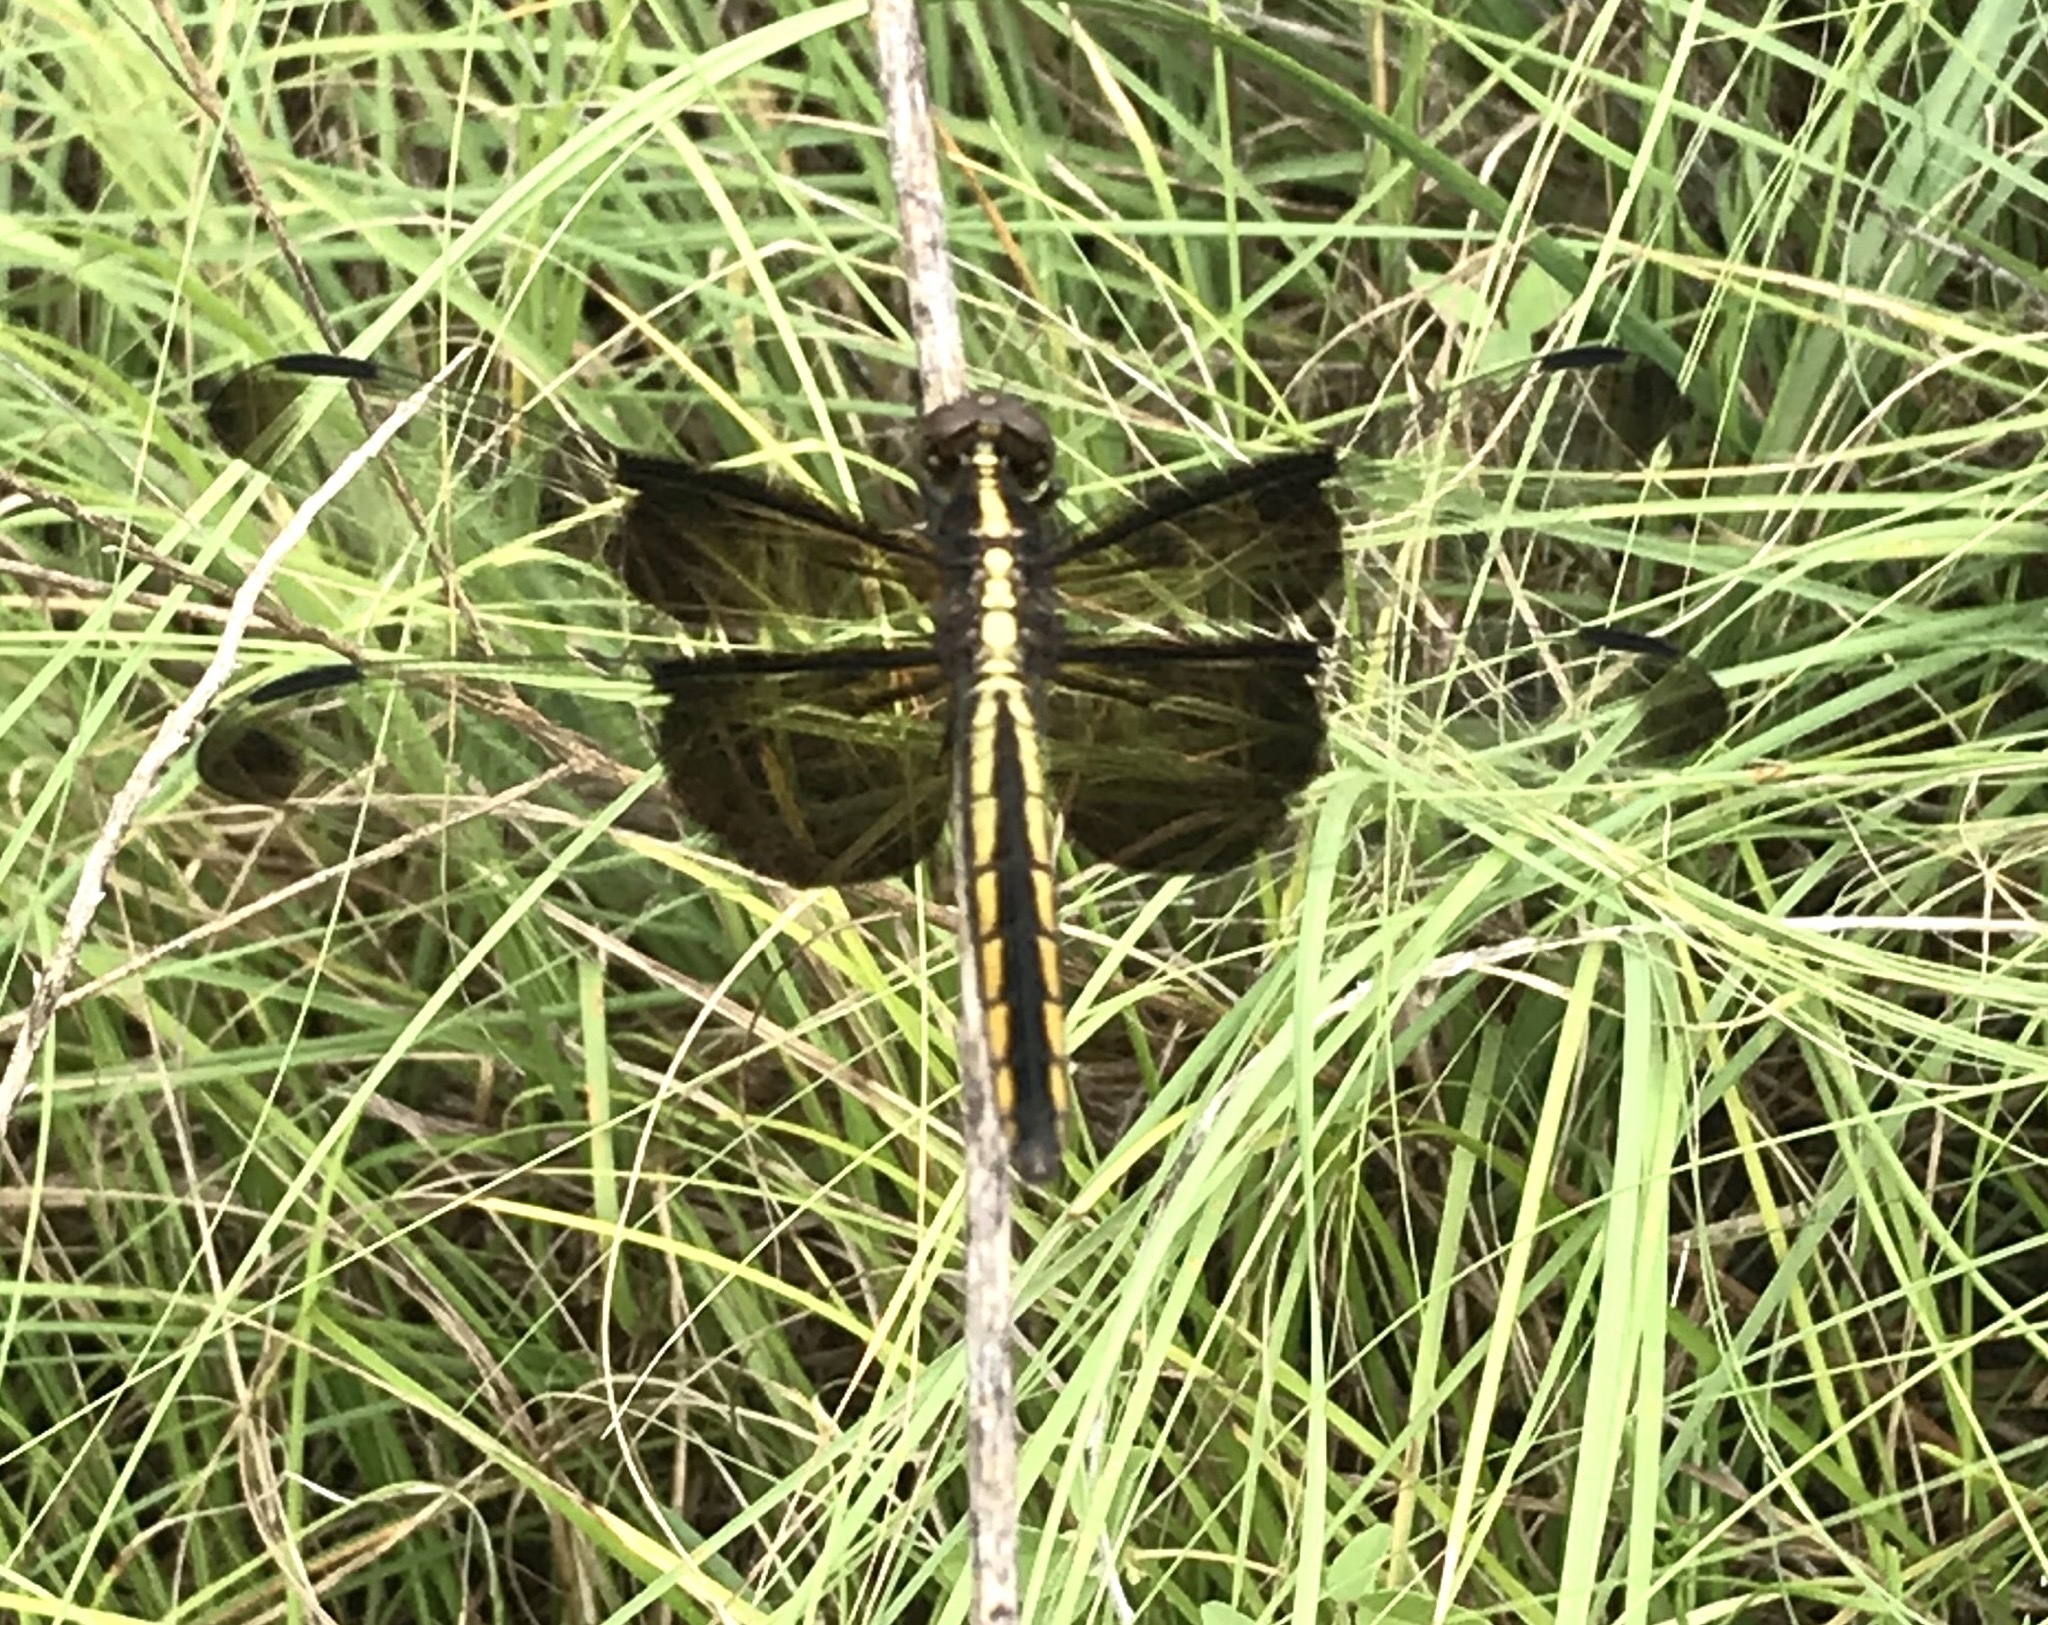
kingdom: Animalia
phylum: Arthropoda
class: Insecta
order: Odonata
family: Libellulidae
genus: Libellula
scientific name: Libellula luctuosa
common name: Widow skimmer
